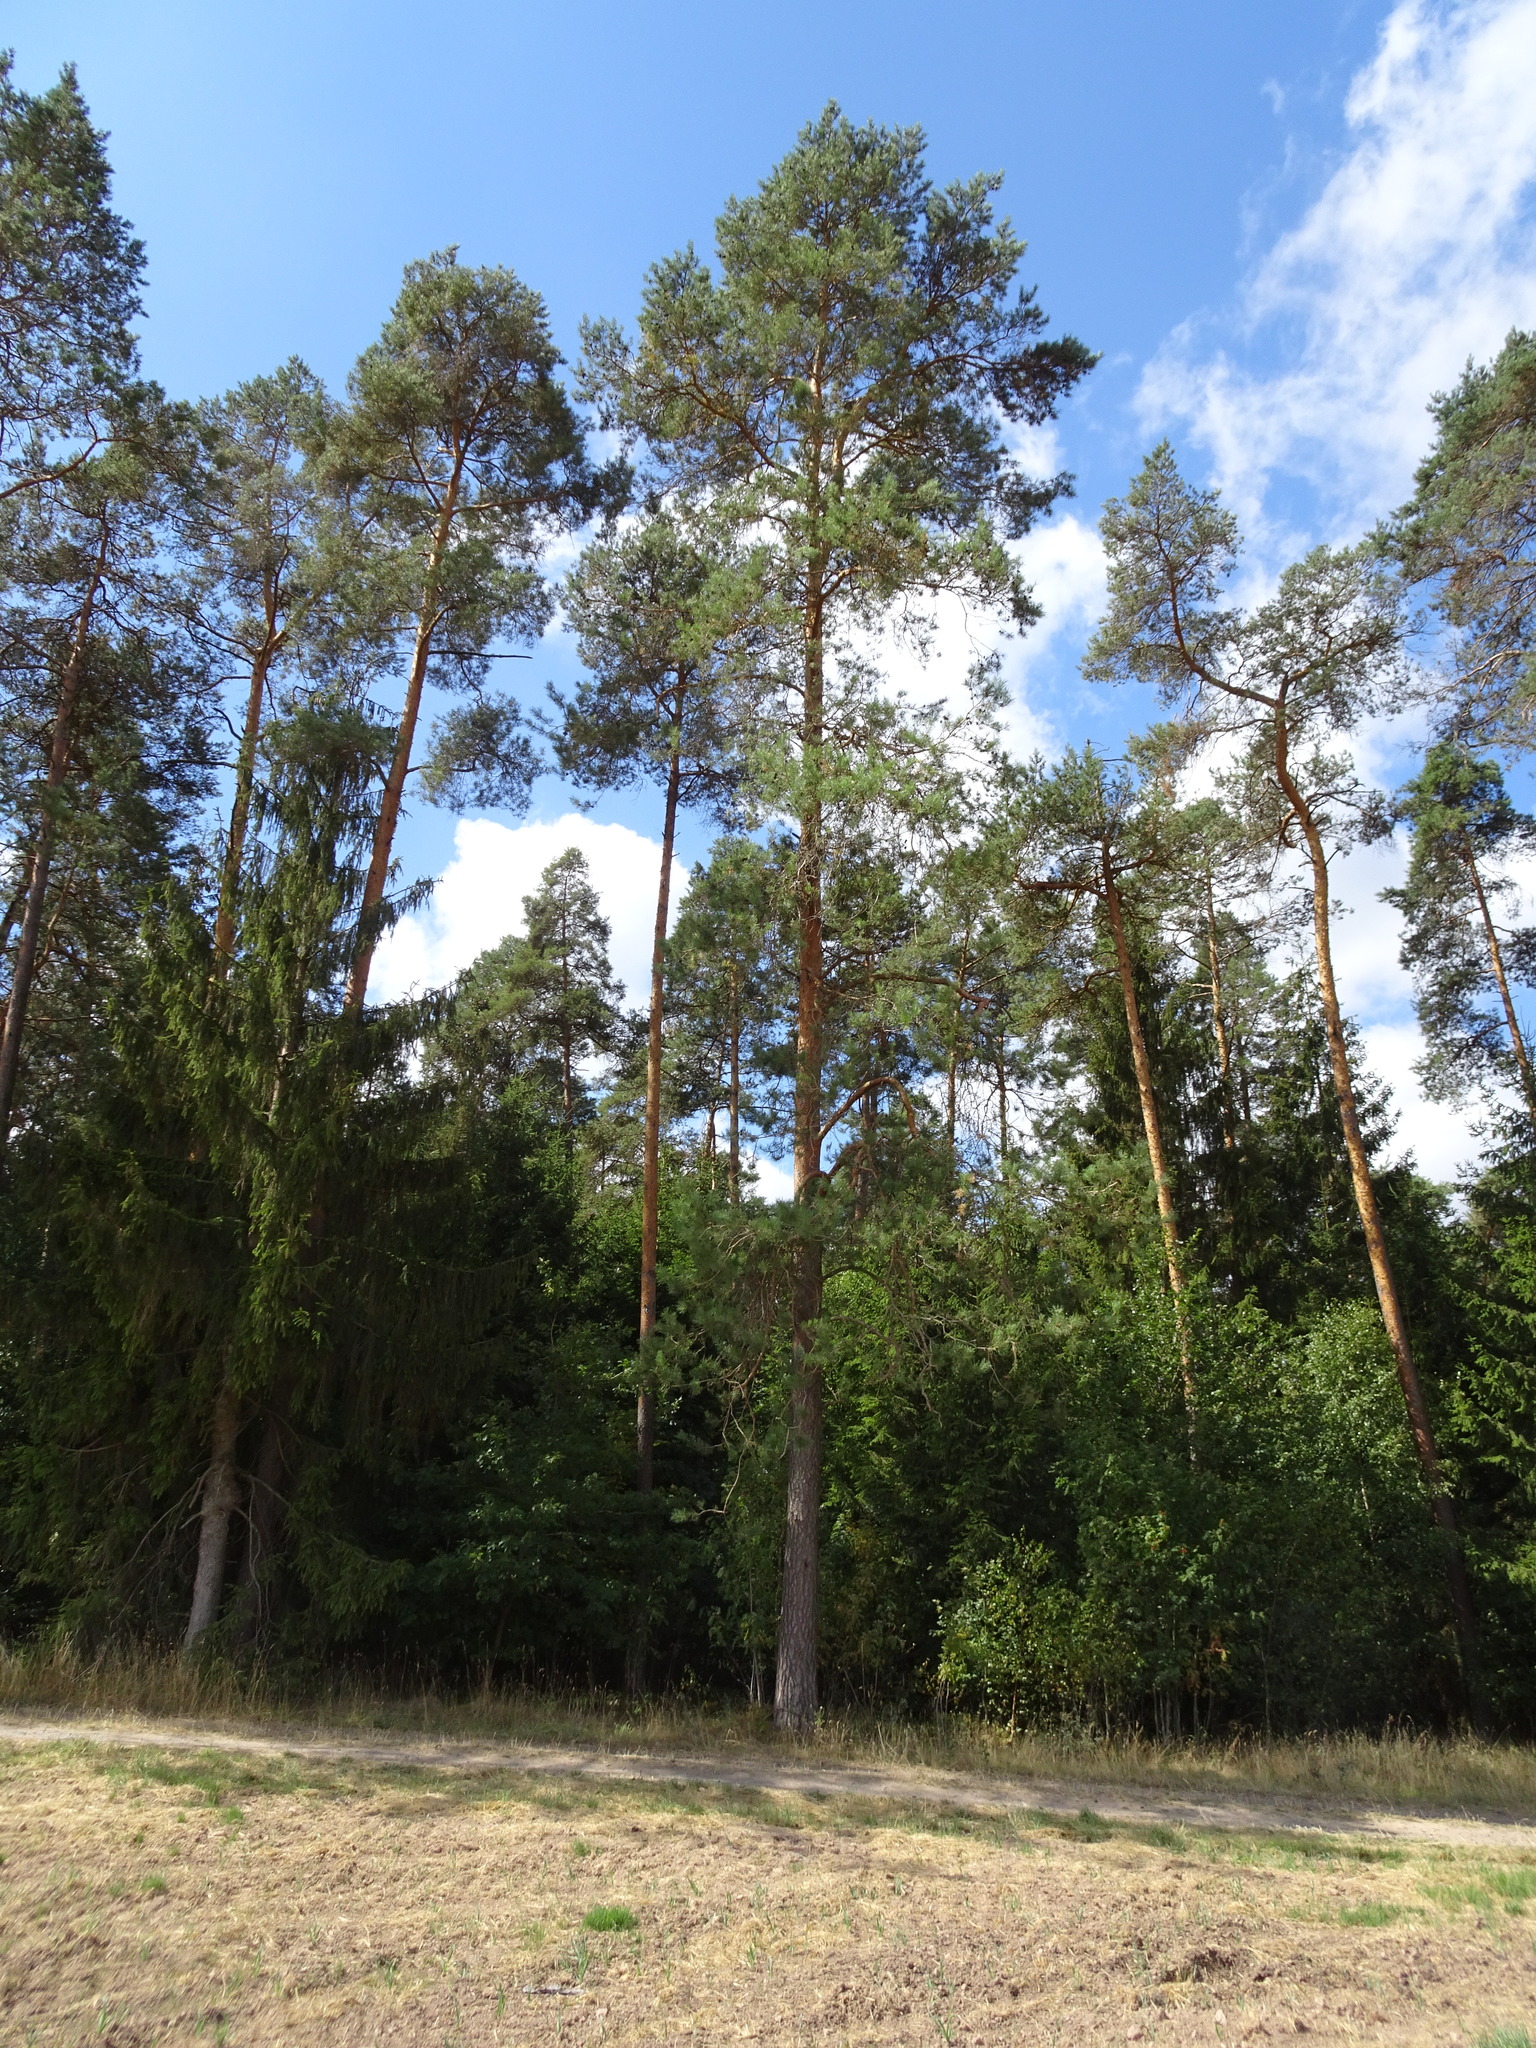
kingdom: Plantae
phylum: Tracheophyta
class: Pinopsida
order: Pinales
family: Pinaceae
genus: Pinus
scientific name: Pinus sylvestris
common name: Scots pine
